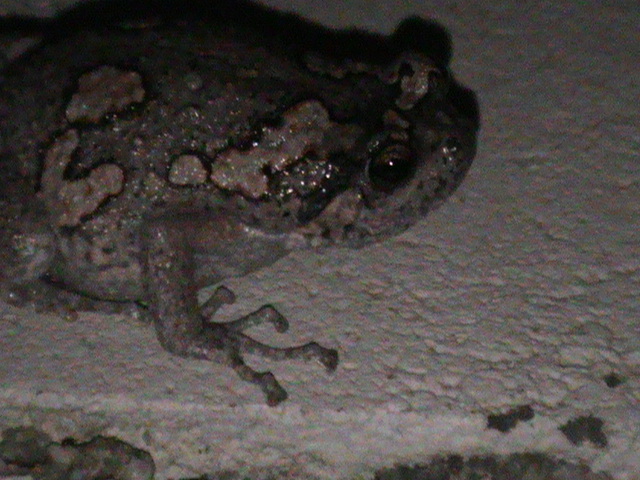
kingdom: Animalia
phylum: Chordata
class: Amphibia
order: Anura
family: Microhylidae
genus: Uperodon
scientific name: Uperodon taprobanicus
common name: Ceylon kaloula
